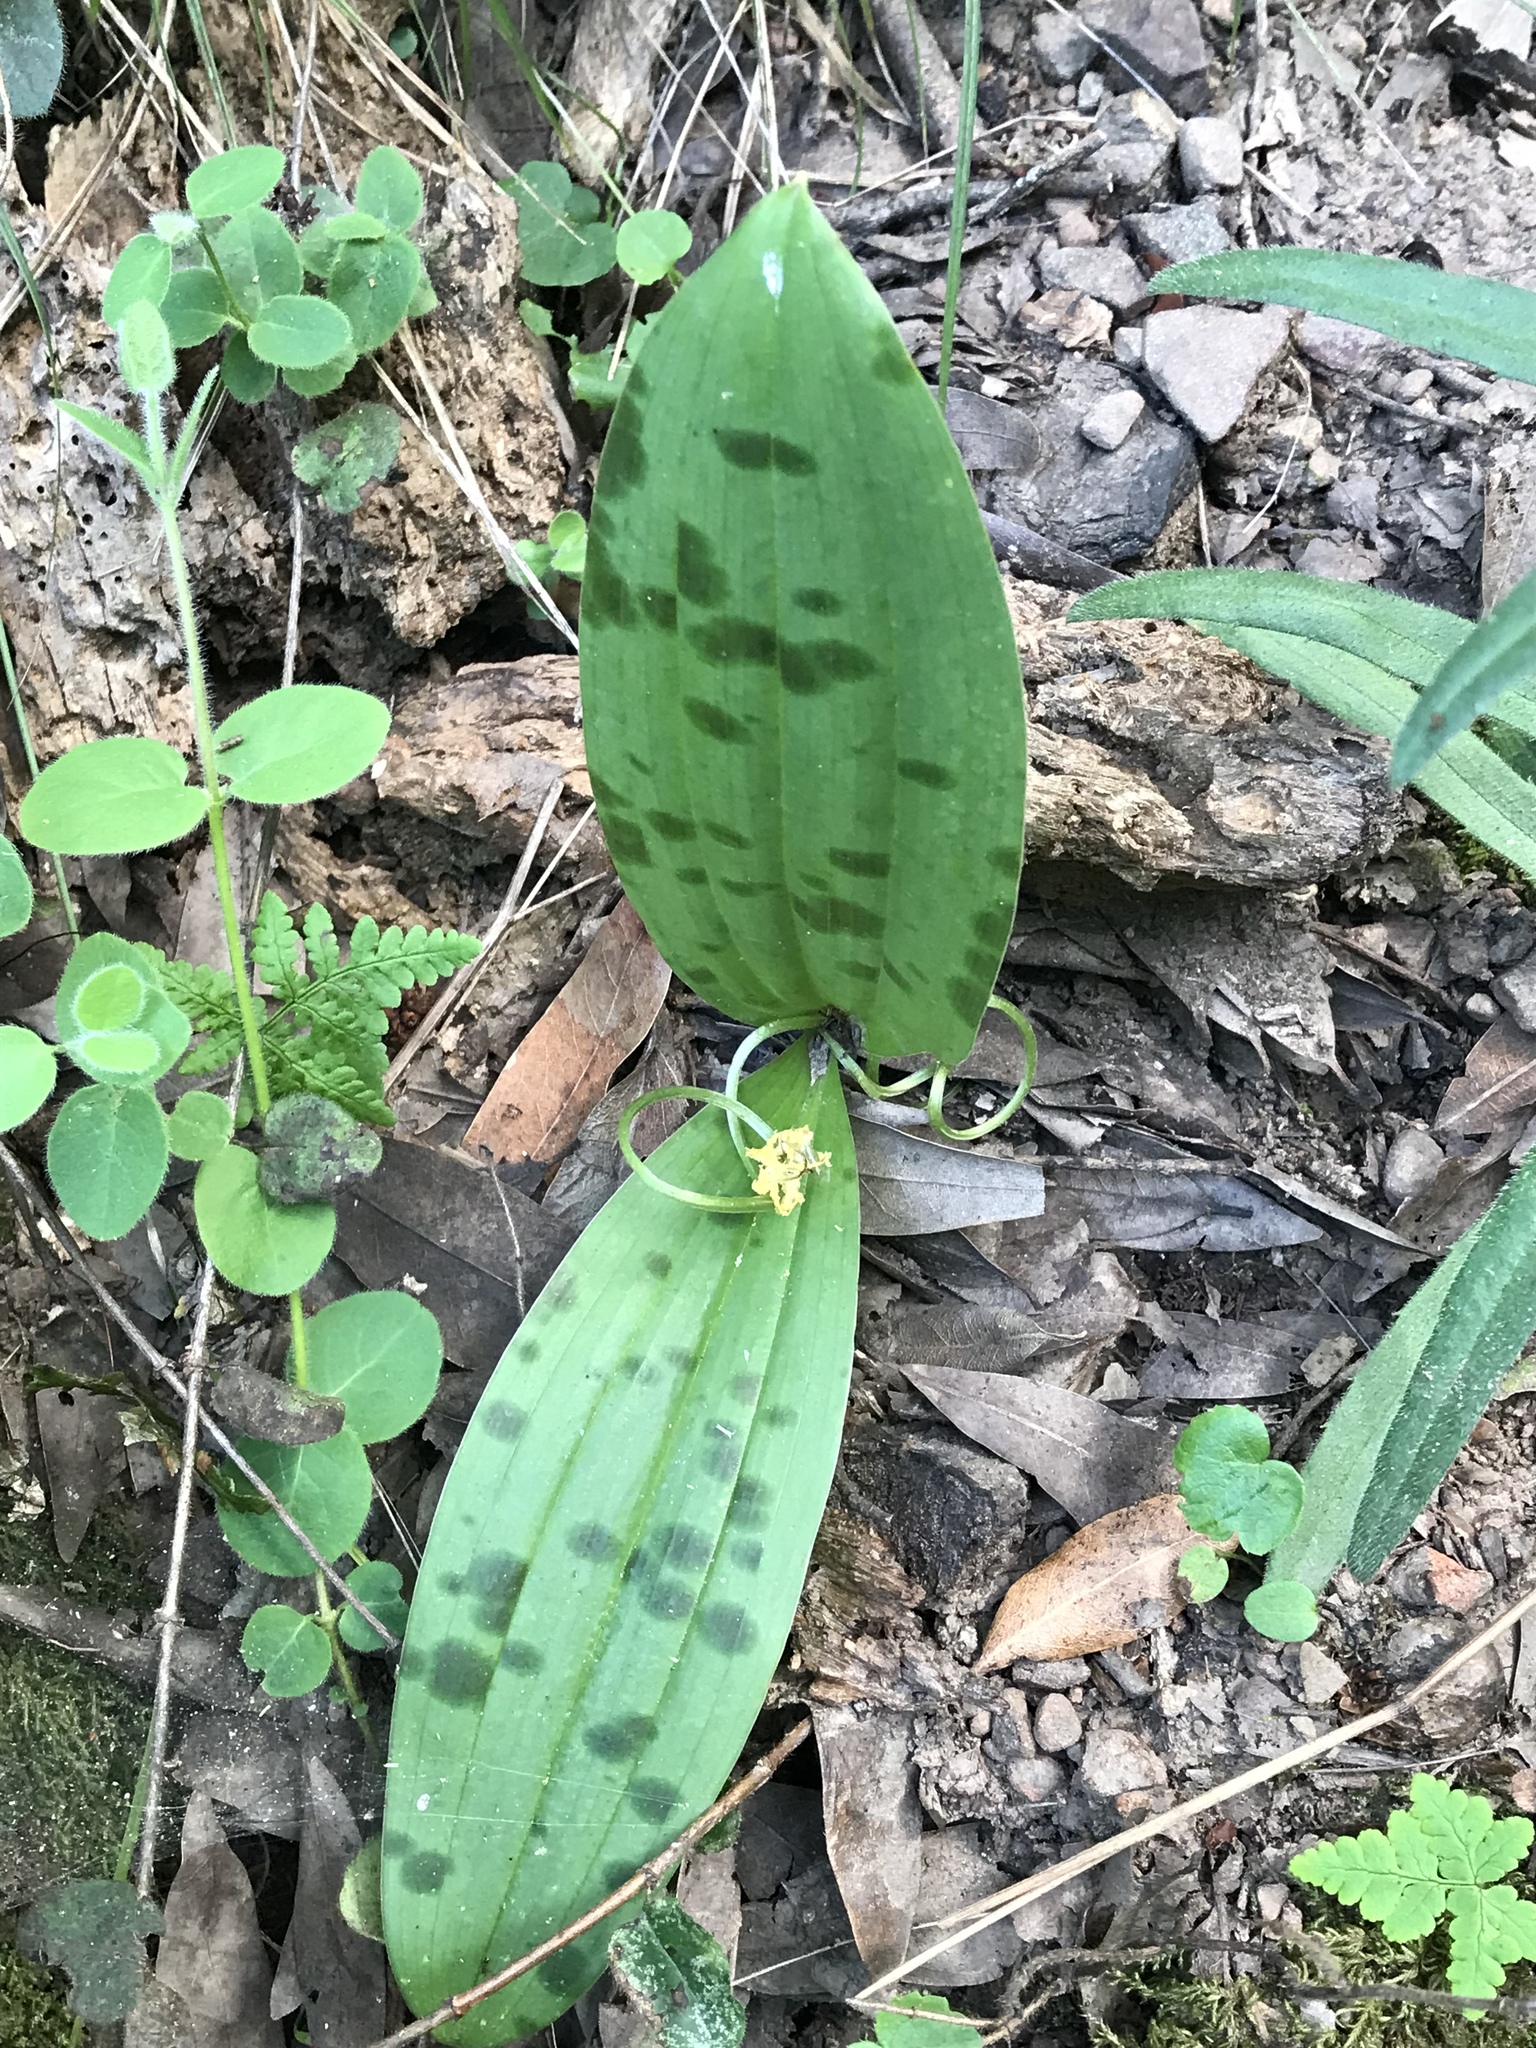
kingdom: Plantae
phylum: Tracheophyta
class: Liliopsida
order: Liliales
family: Liliaceae
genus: Scoliopus
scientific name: Scoliopus bigelovii
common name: Foetid adder's-tongue
